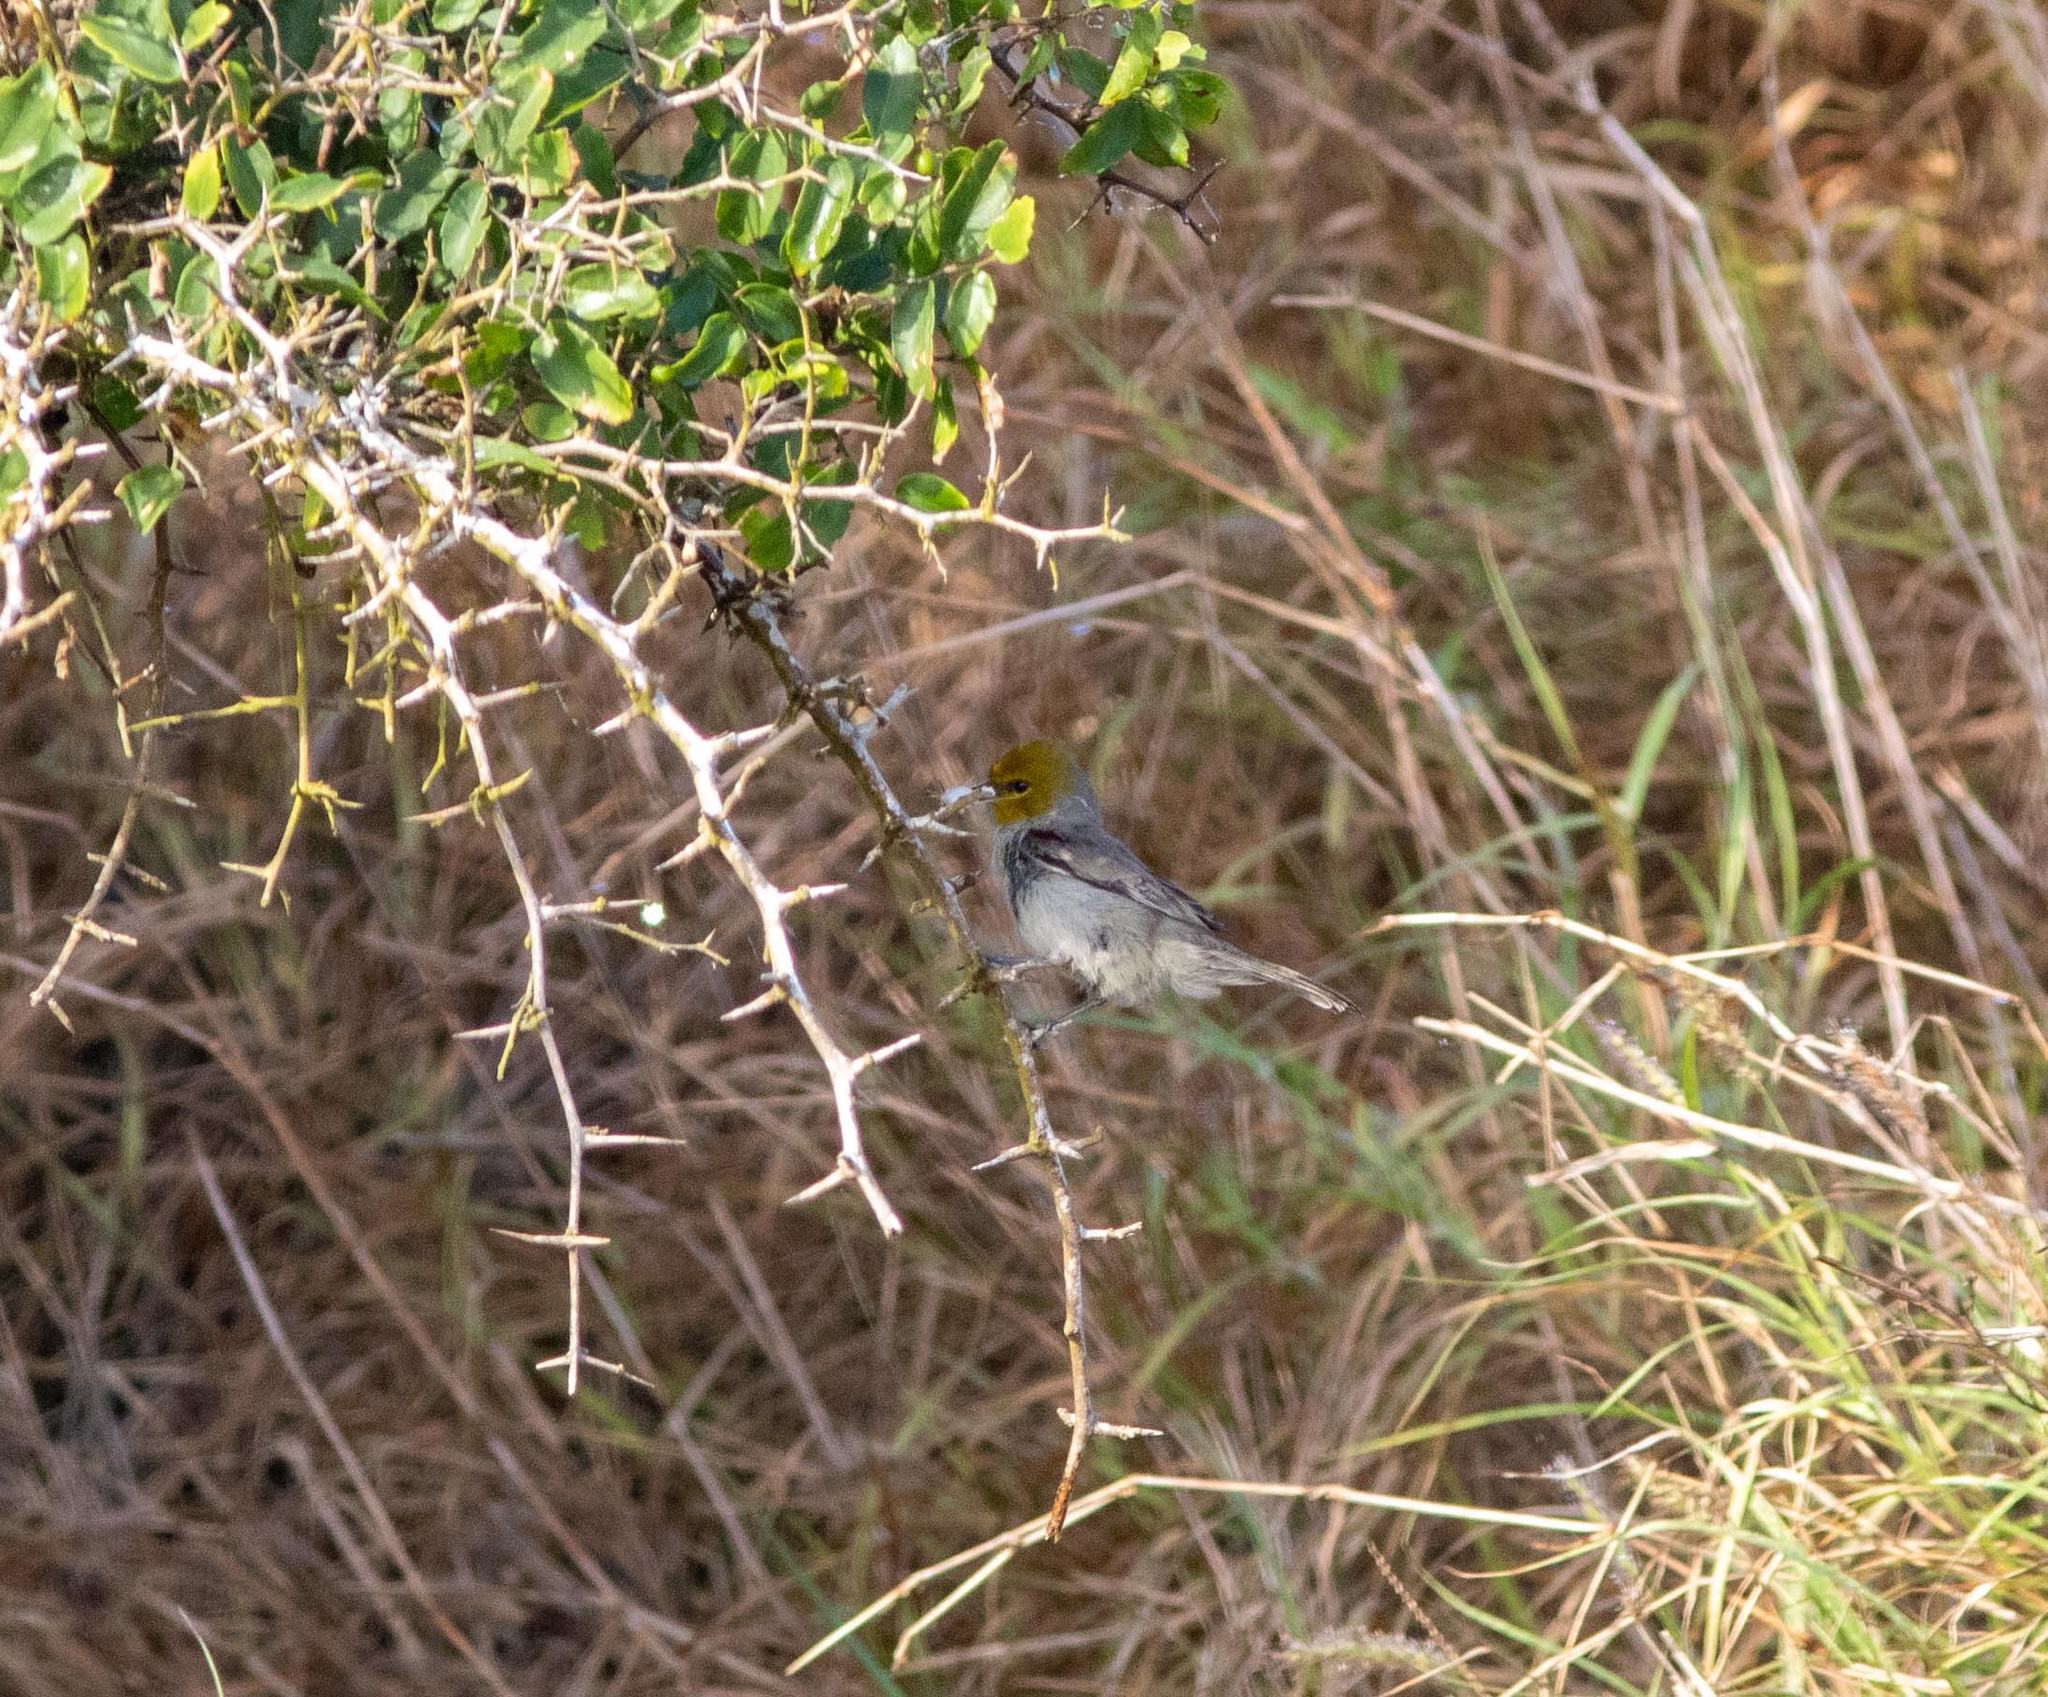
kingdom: Animalia
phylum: Chordata
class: Aves
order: Passeriformes
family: Remizidae
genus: Auriparus
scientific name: Auriparus flaviceps
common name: Verdin
